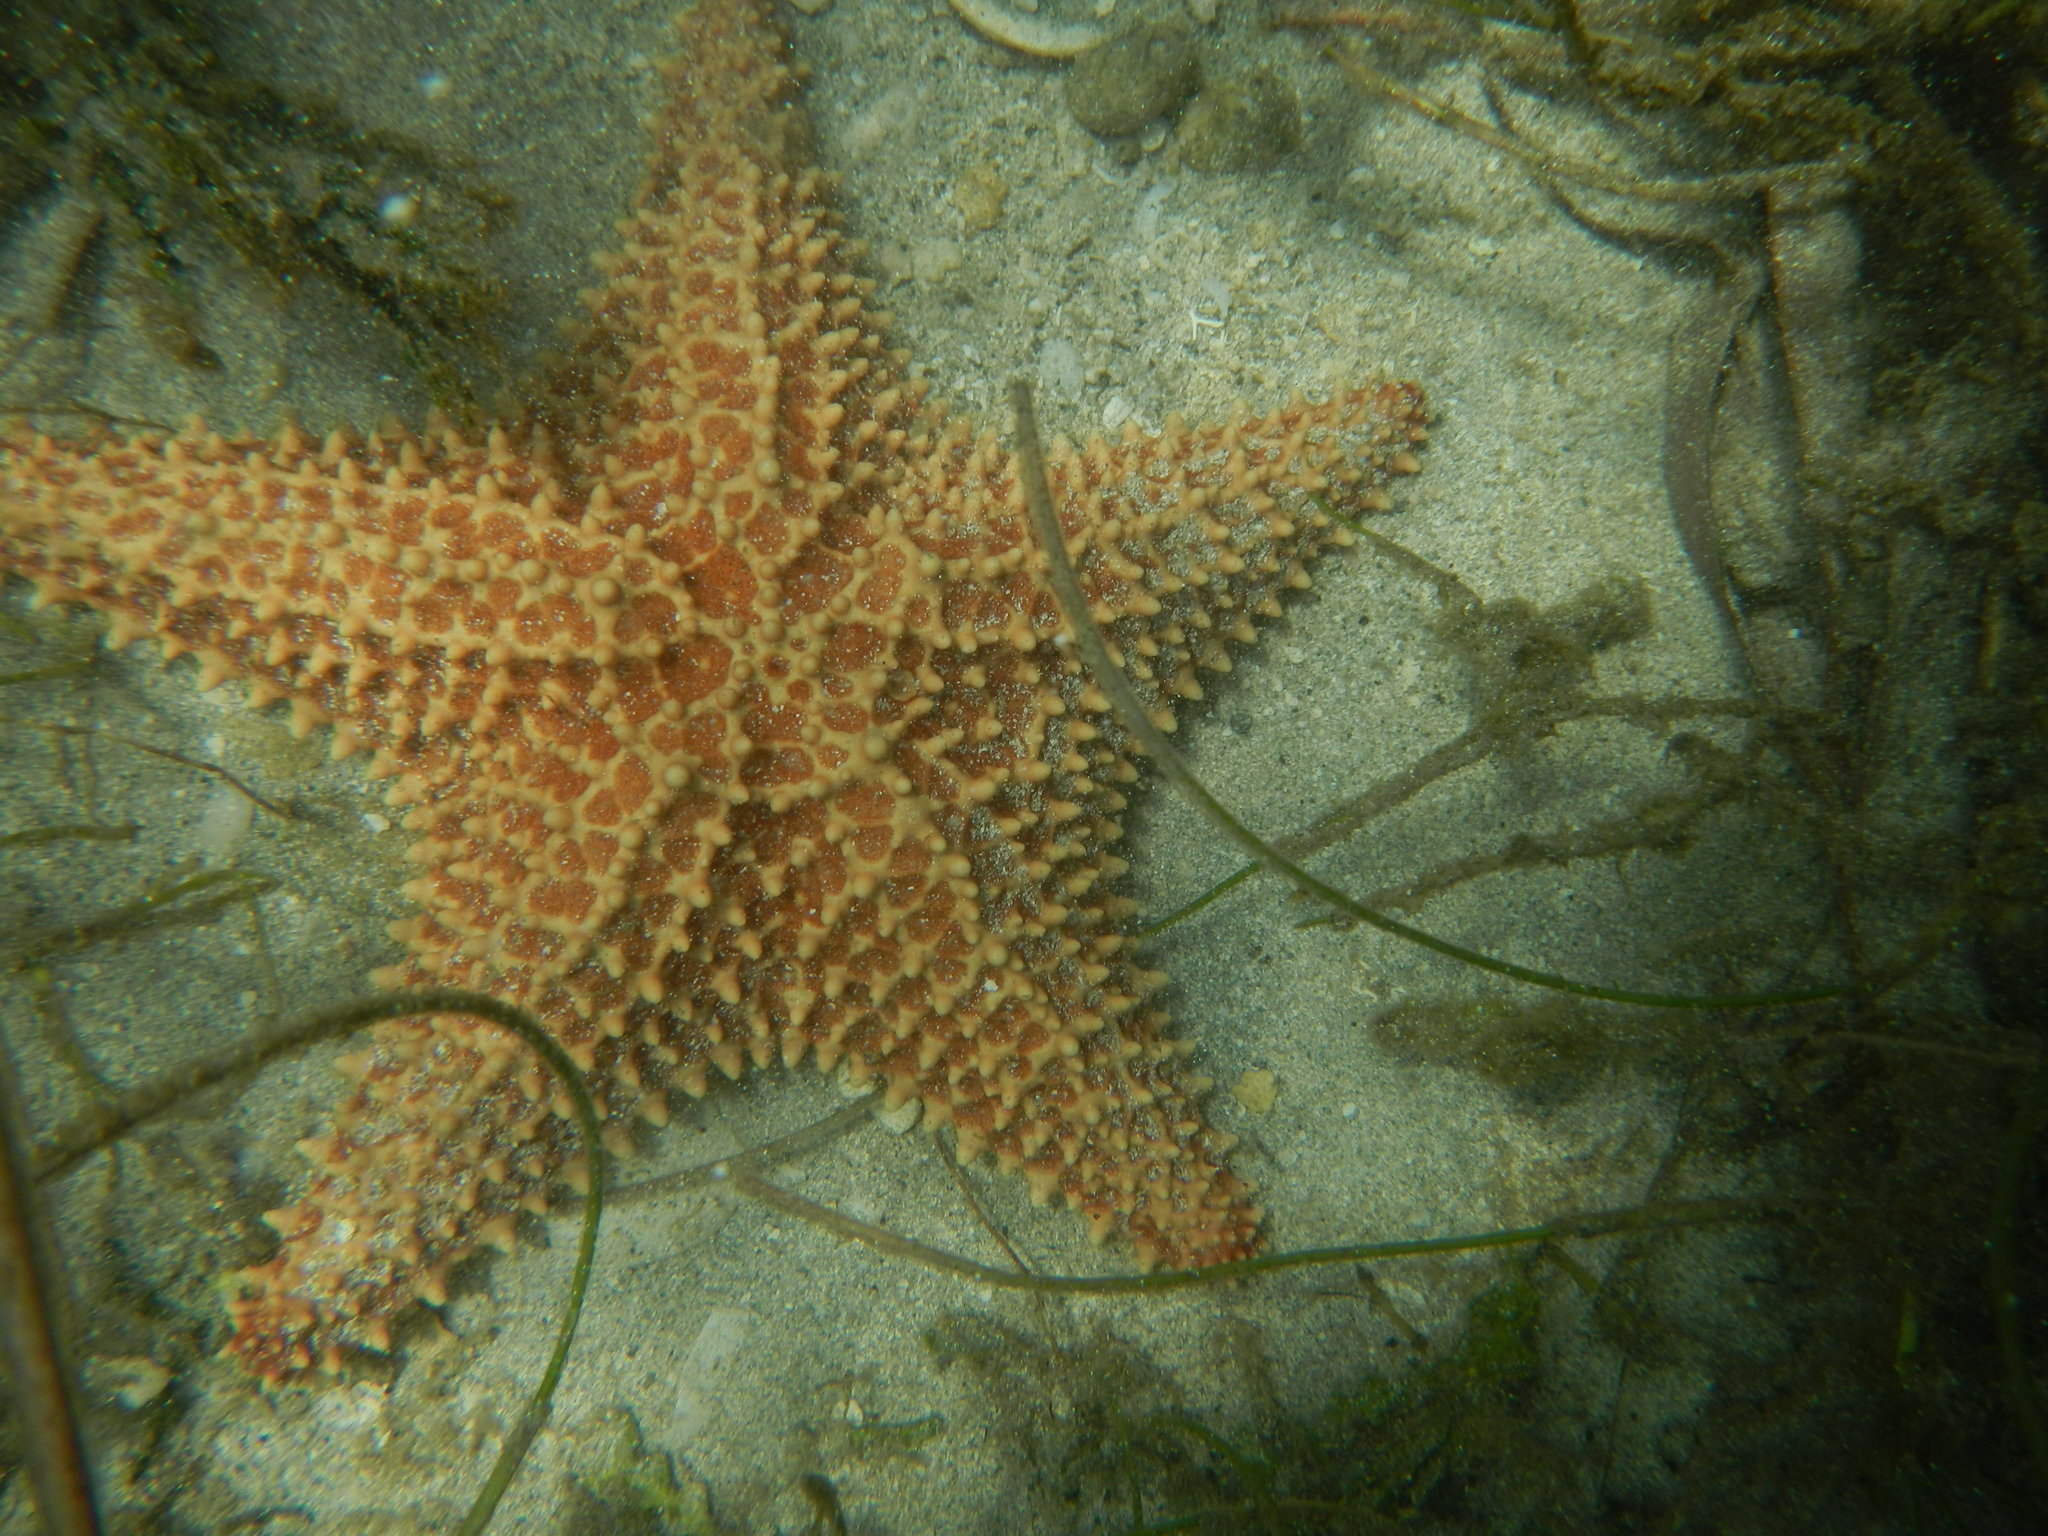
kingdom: Animalia
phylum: Echinodermata
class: Asteroidea
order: Valvatida
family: Oreasteridae
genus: Oreaster
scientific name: Oreaster reticulatus
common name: Cushion sea star
